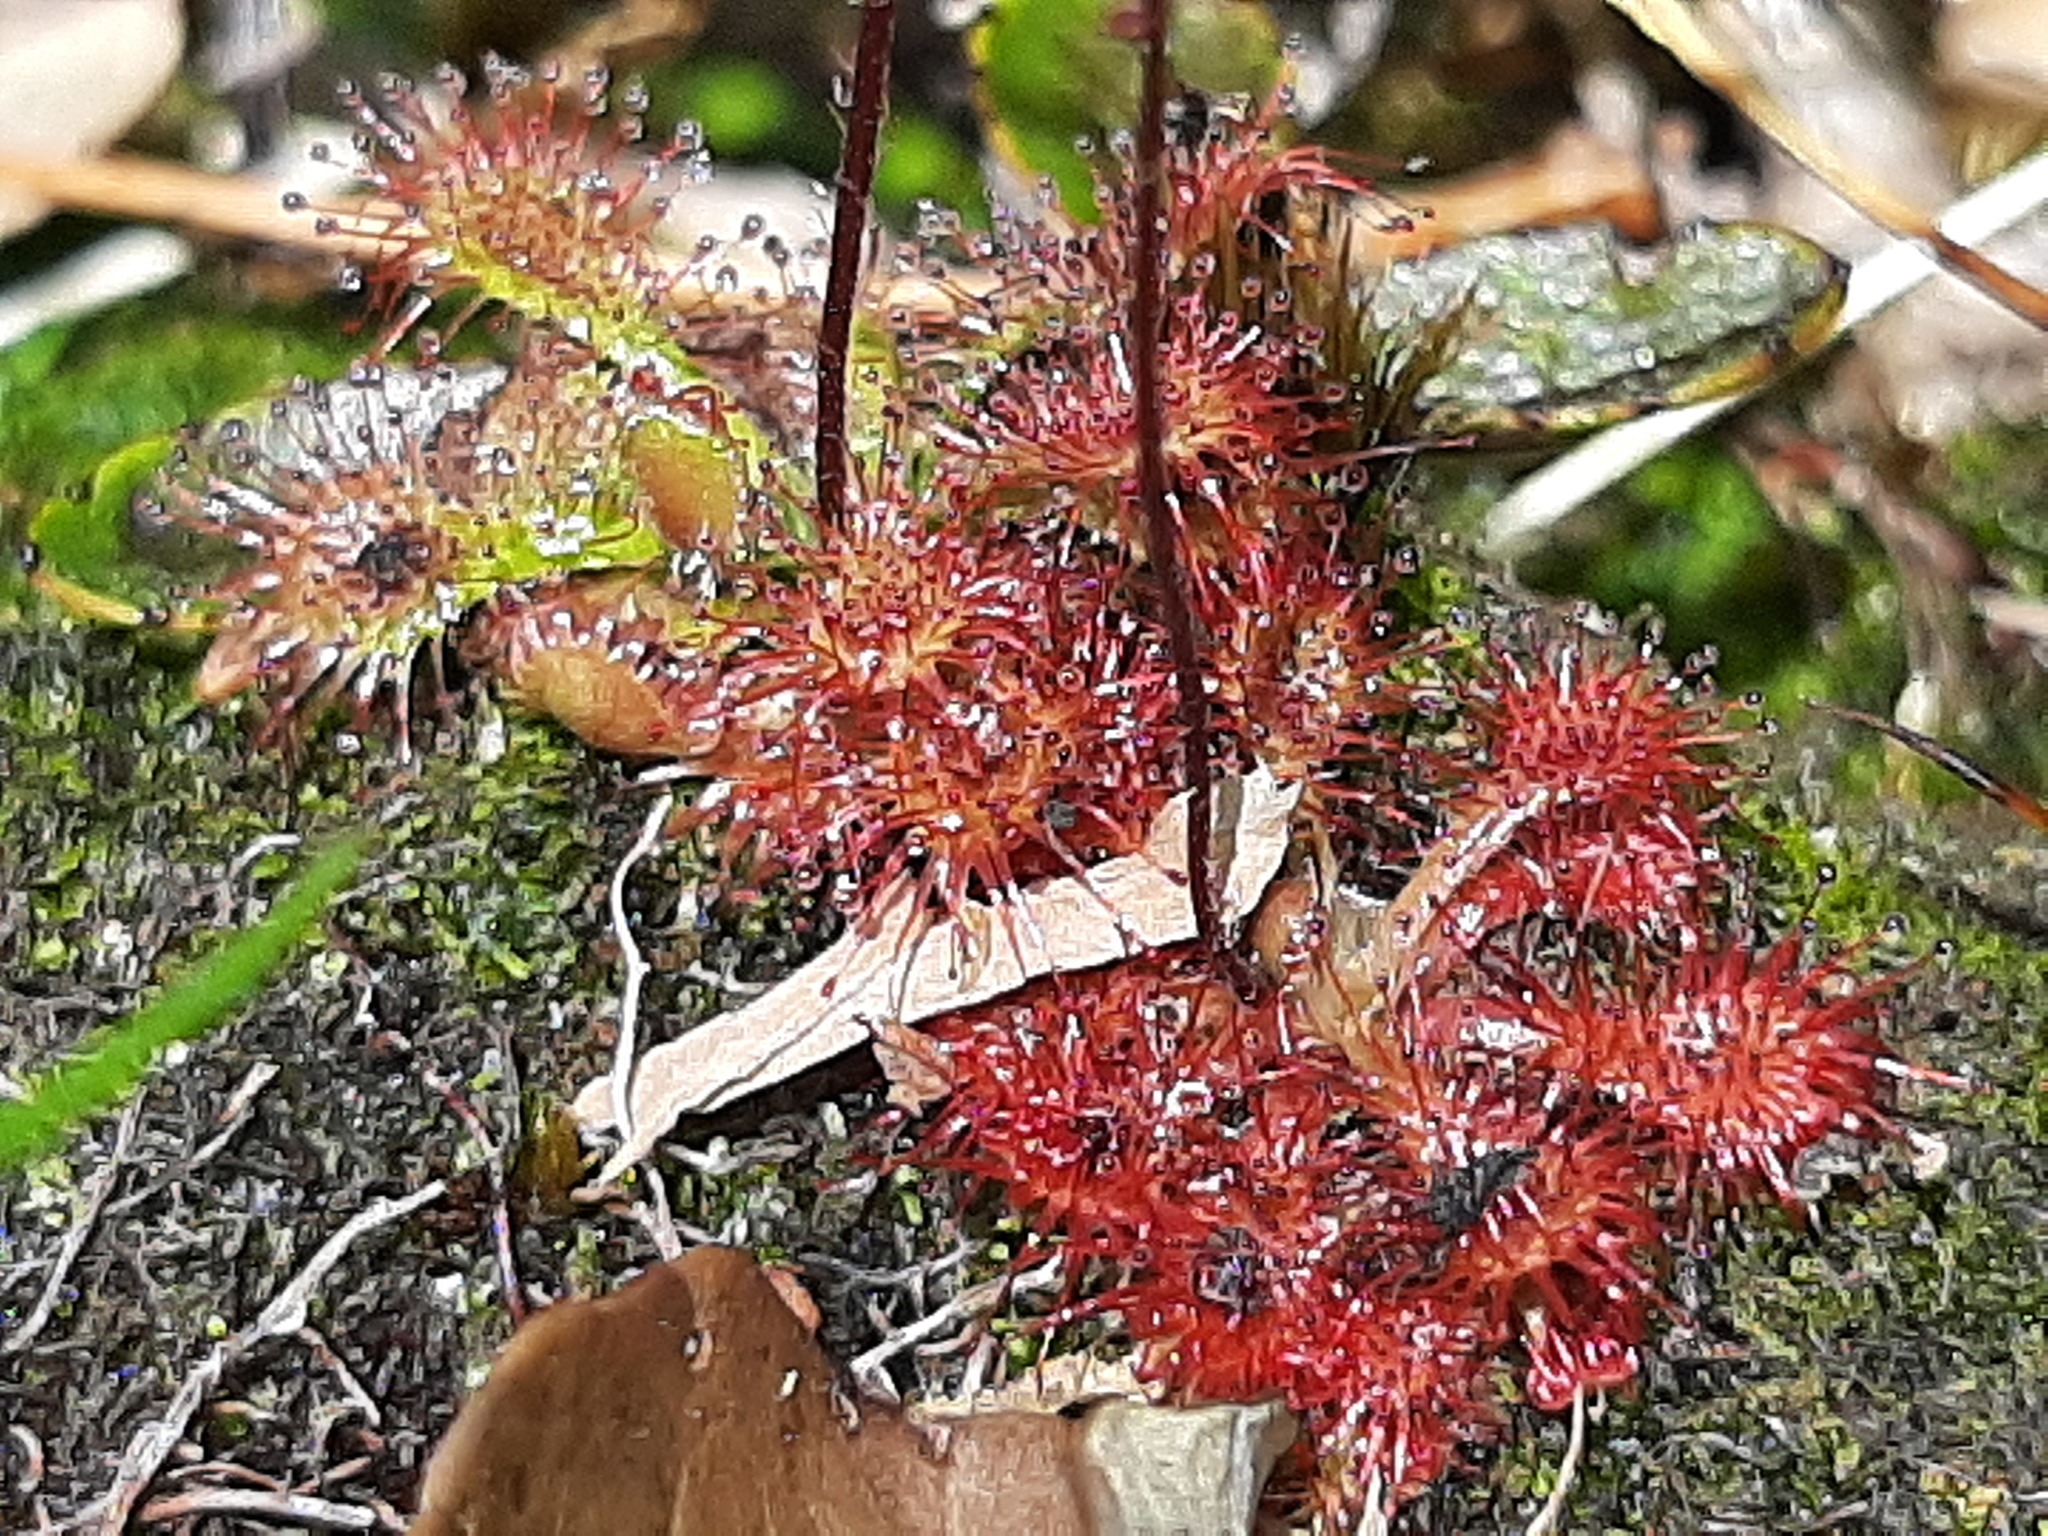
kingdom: Plantae
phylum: Tracheophyta
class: Magnoliopsida
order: Caryophyllales
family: Droseraceae
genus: Drosera
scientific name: Drosera spatulata
